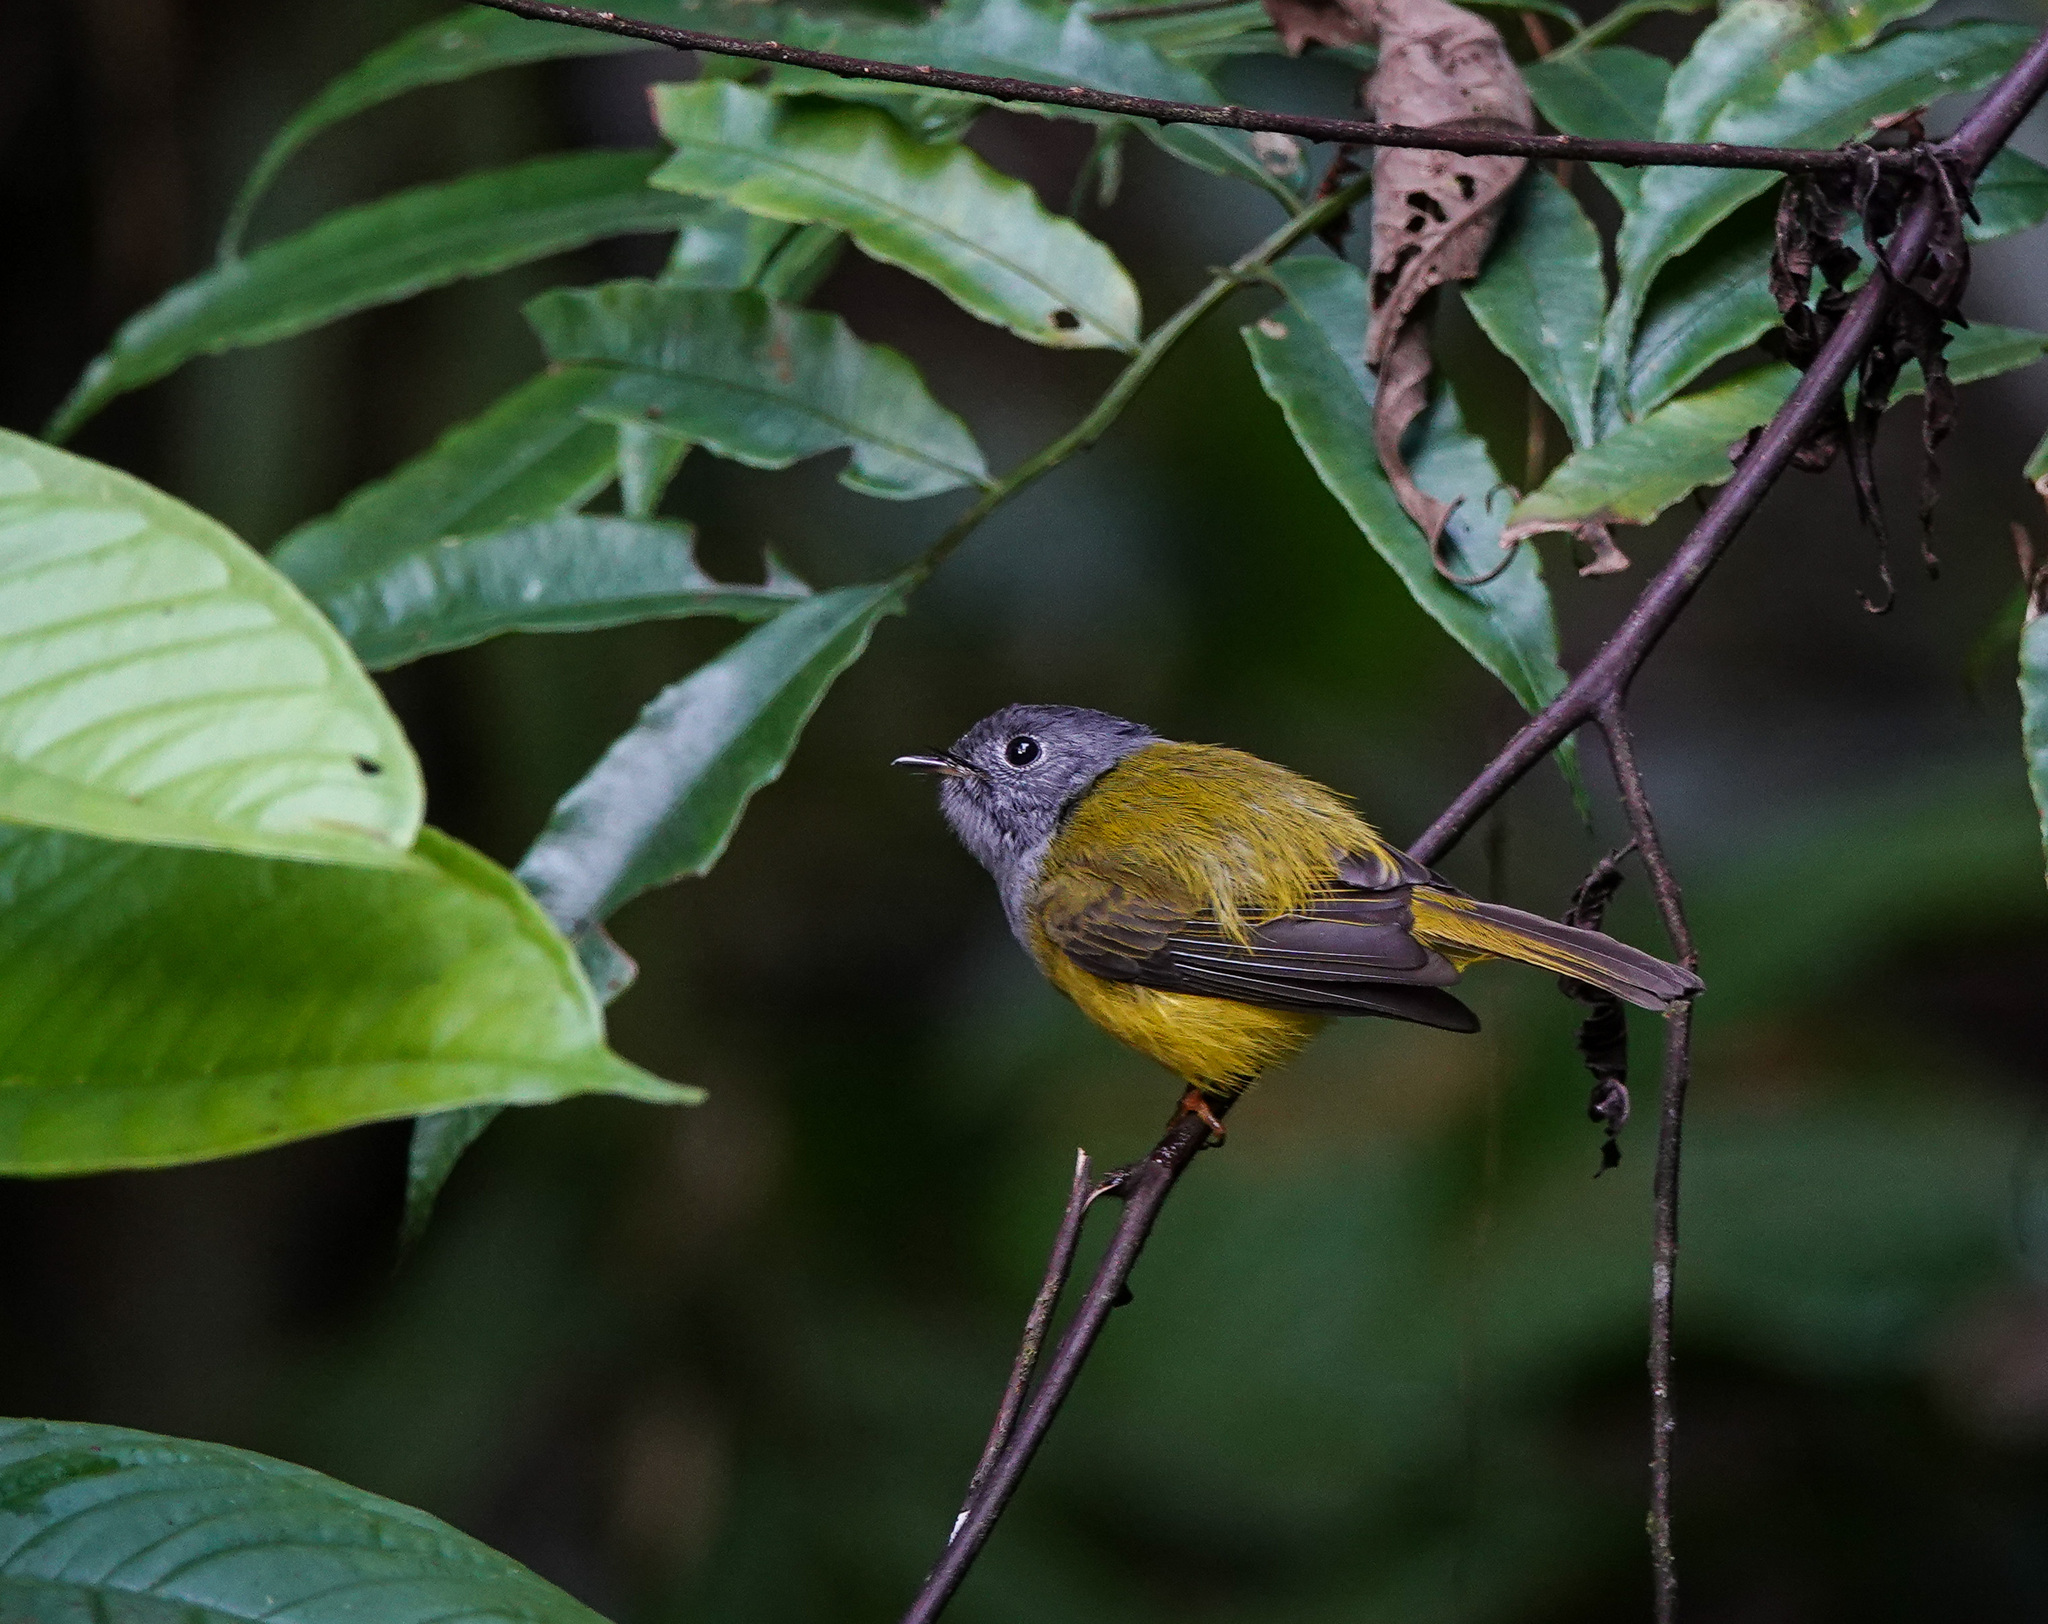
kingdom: Animalia
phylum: Chordata
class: Aves
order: Passeriformes
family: Stenostiridae
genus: Culicicapa
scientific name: Culicicapa ceylonensis
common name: Grey-headed canary-flycatcher
